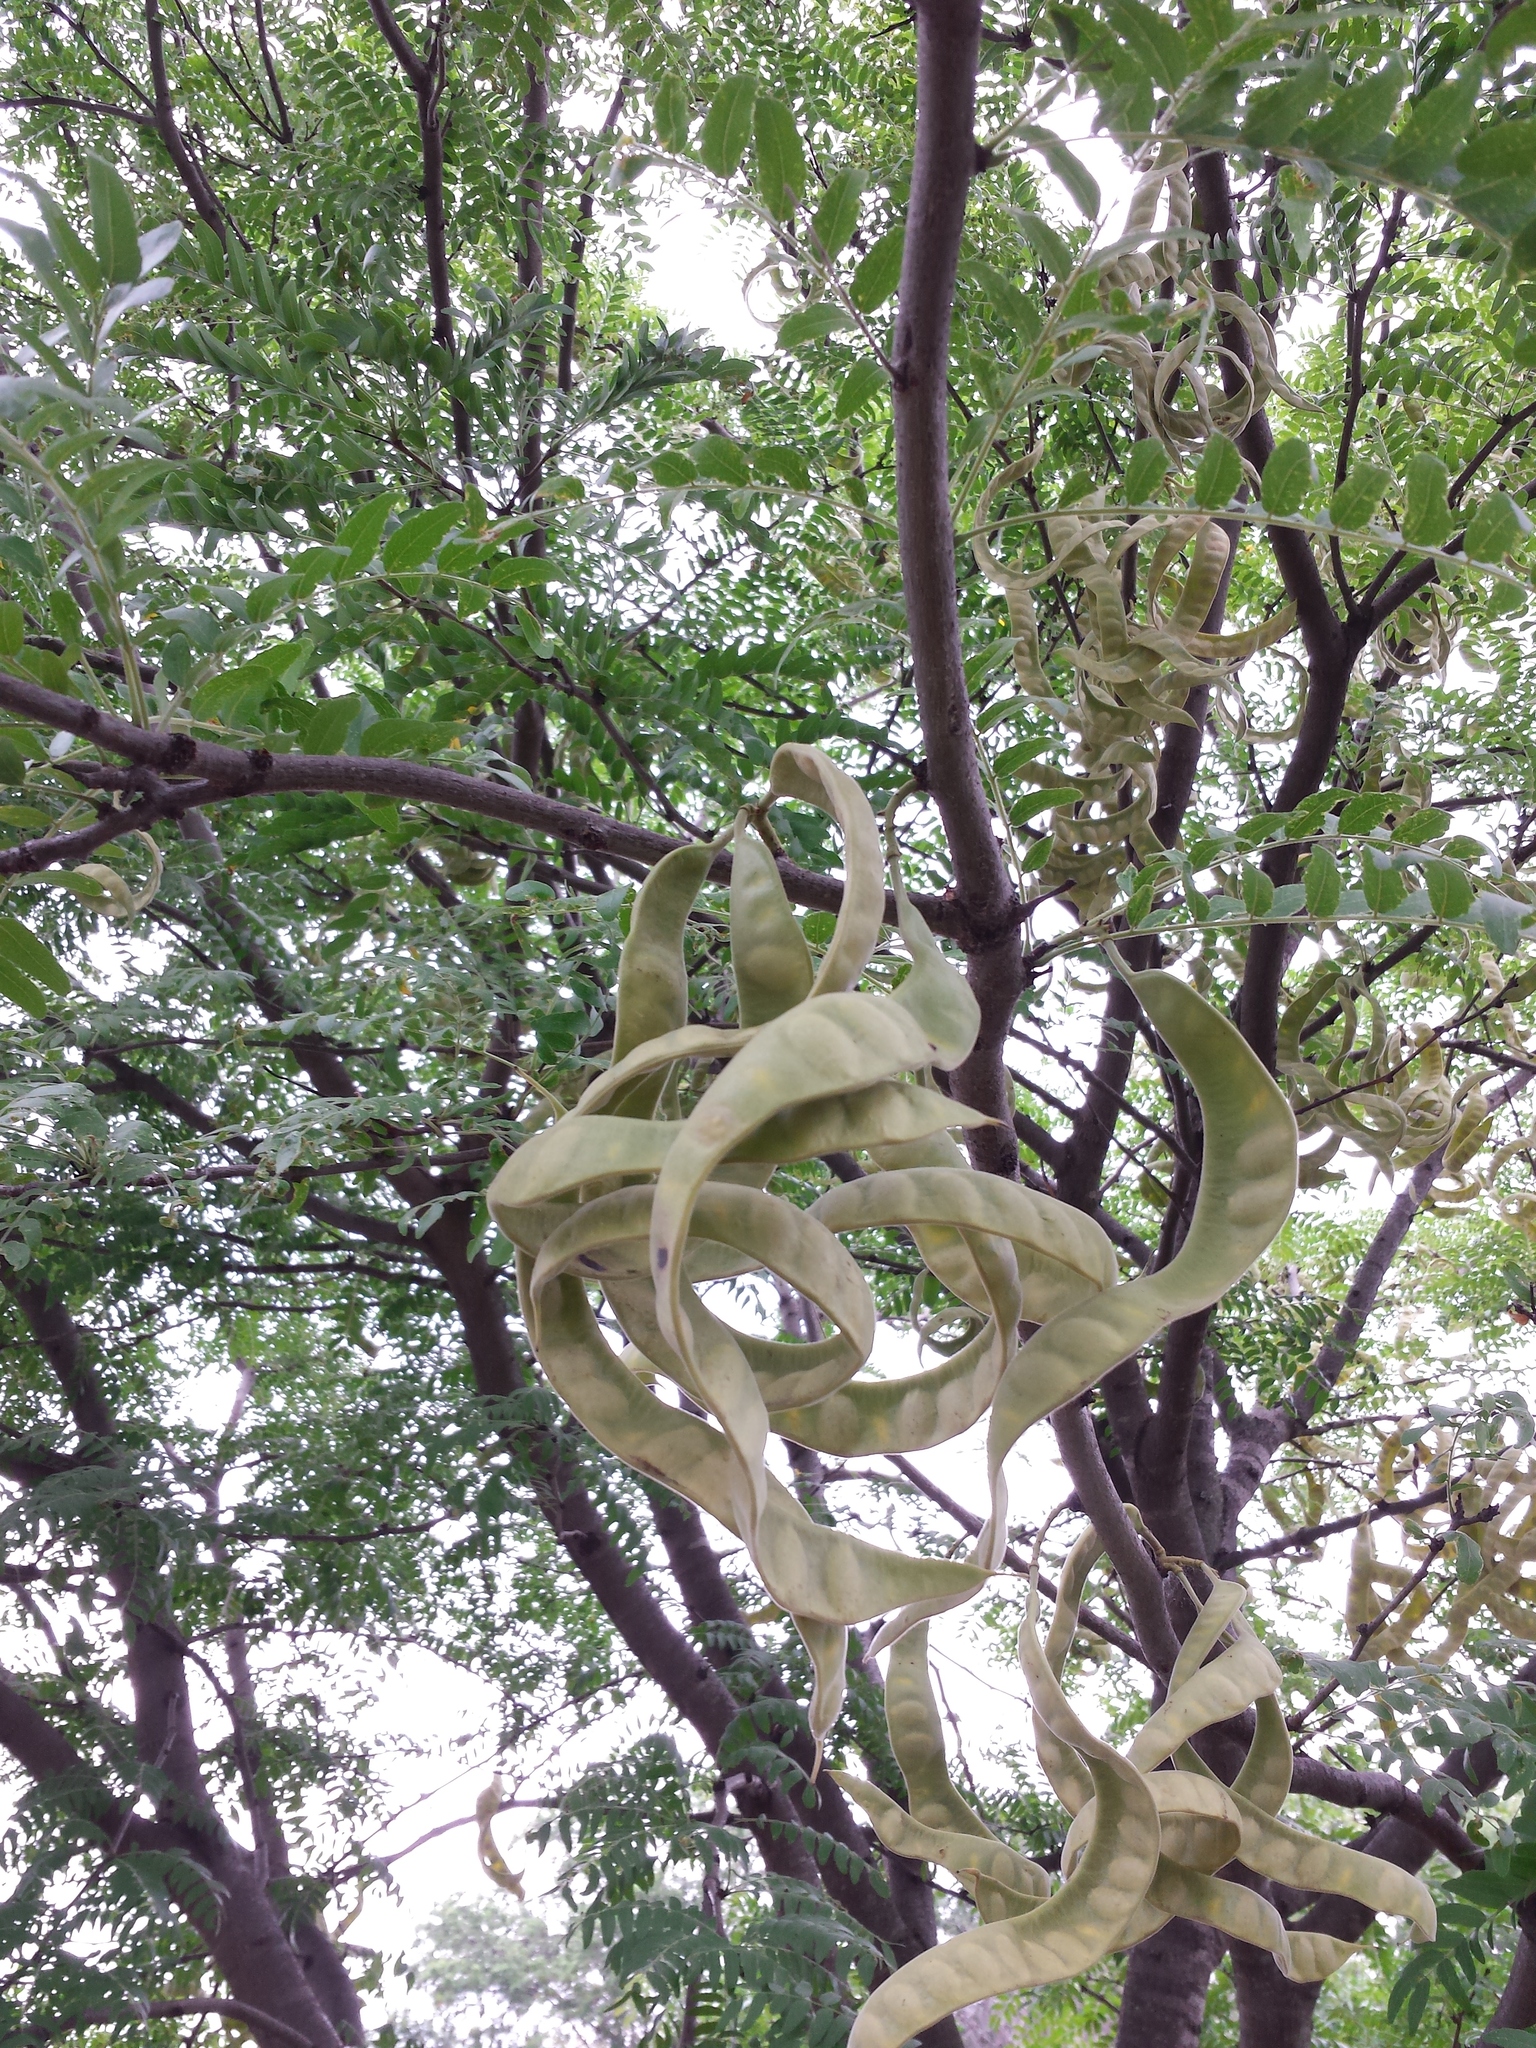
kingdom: Plantae
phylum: Tracheophyta
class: Magnoliopsida
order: Fabales
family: Fabaceae
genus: Gleditsia
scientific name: Gleditsia triacanthos
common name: Common honeylocust
